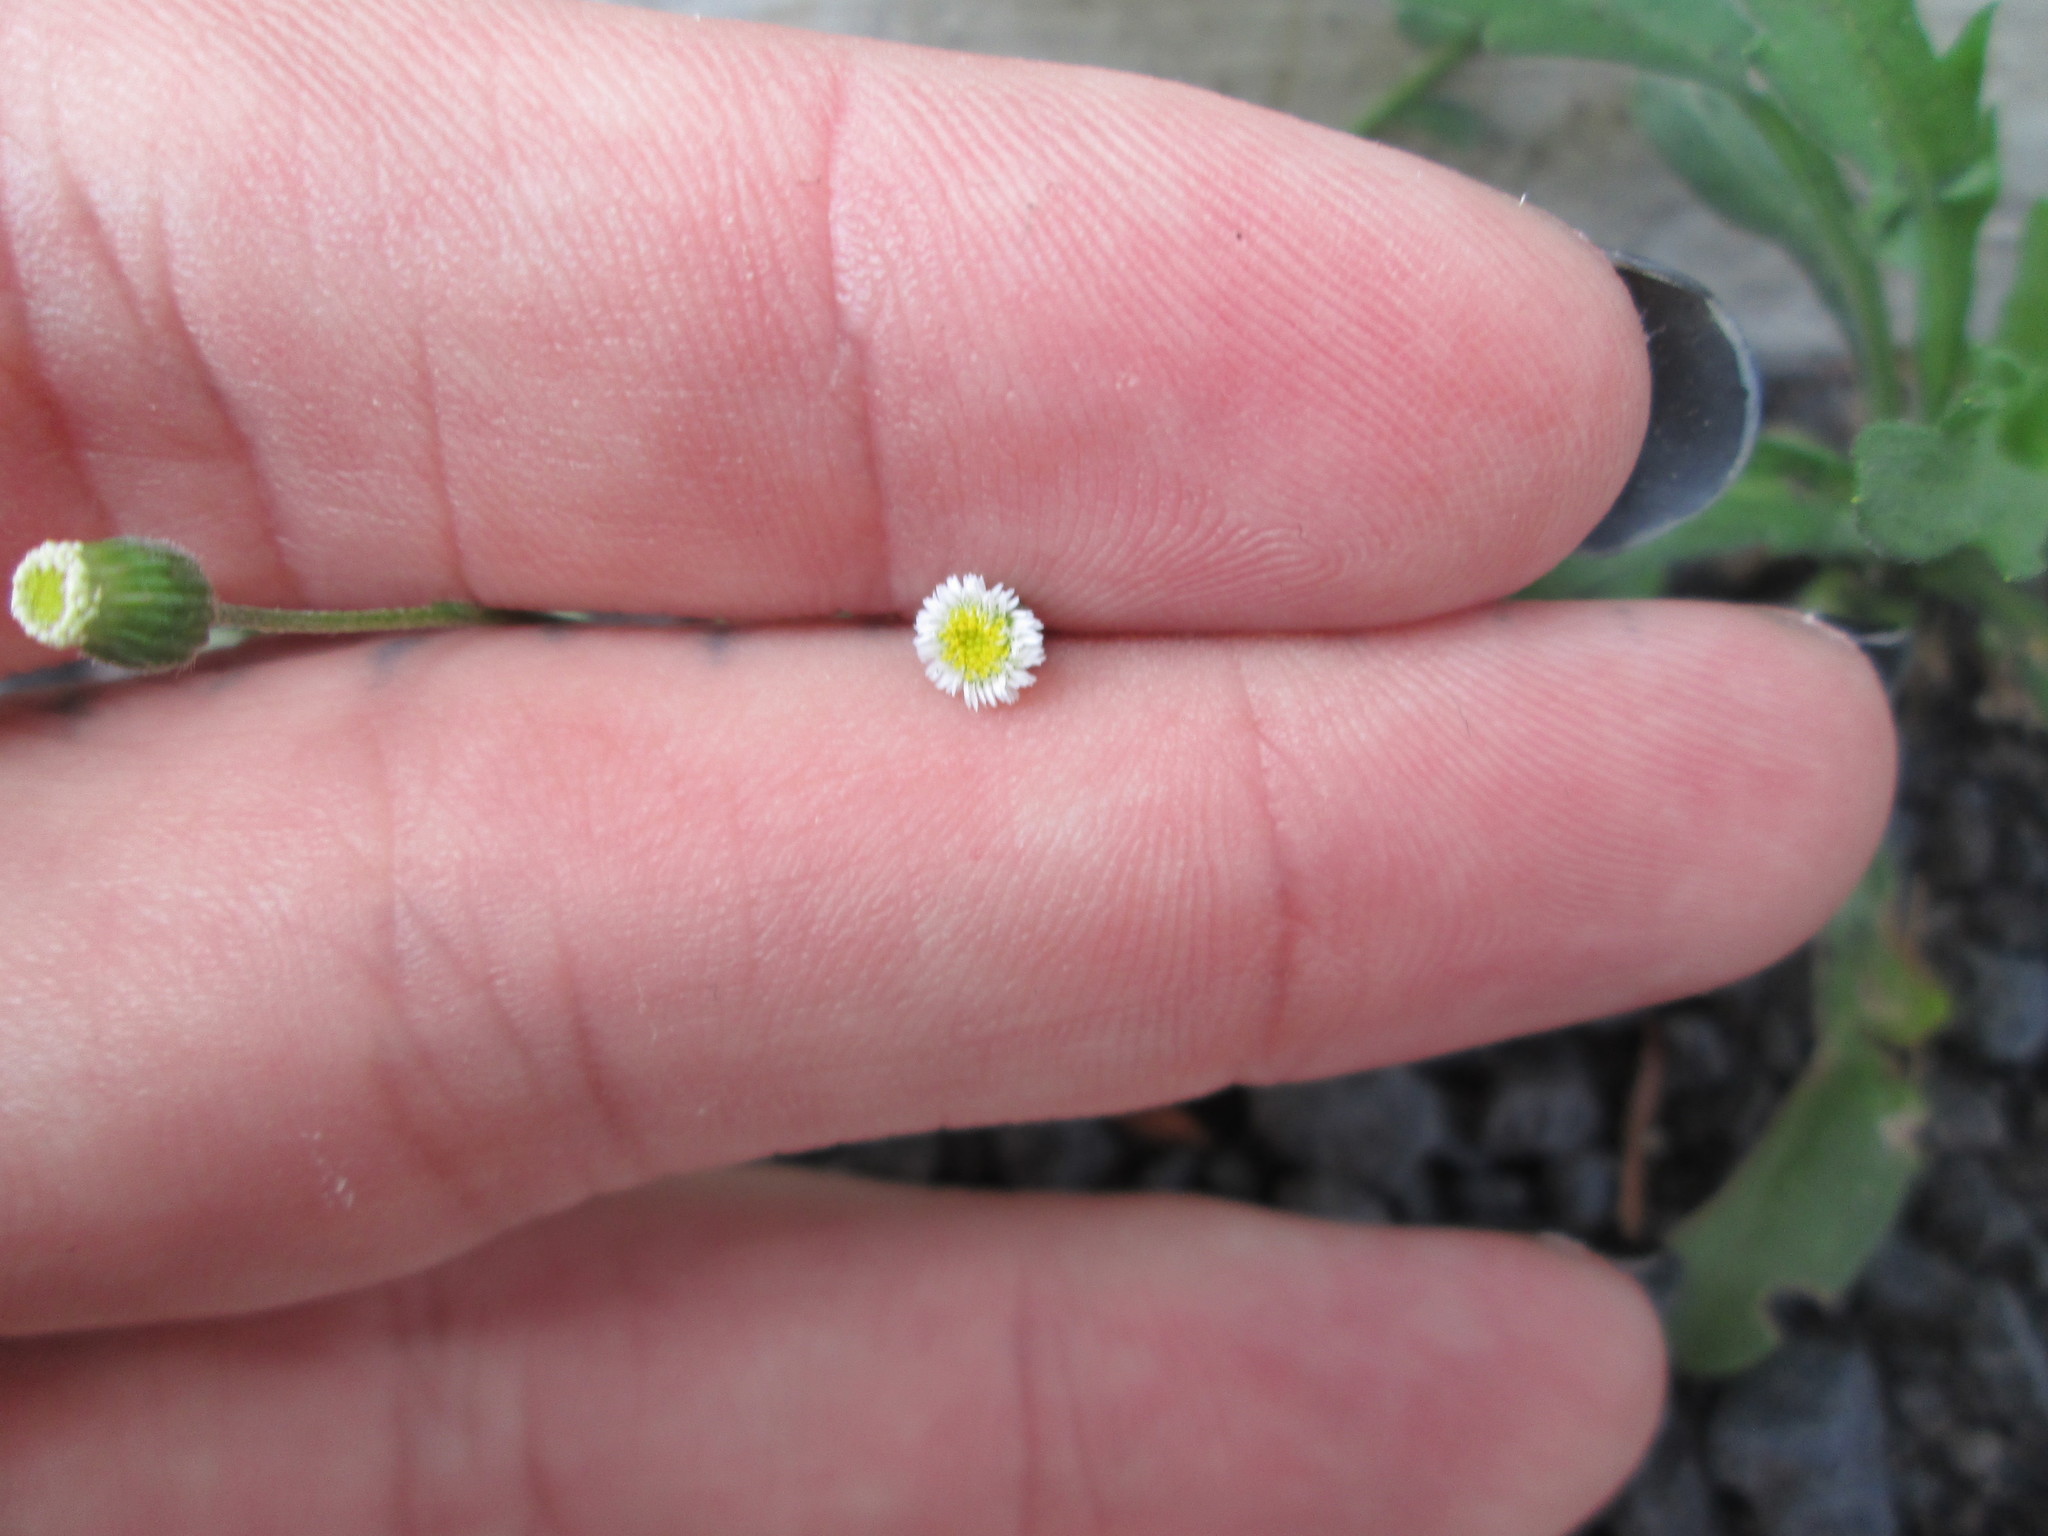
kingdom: Plantae
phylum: Tracheophyta
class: Magnoliopsida
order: Asterales
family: Asteraceae
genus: Erigeron
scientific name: Erigeron bellioides
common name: Bellorita
